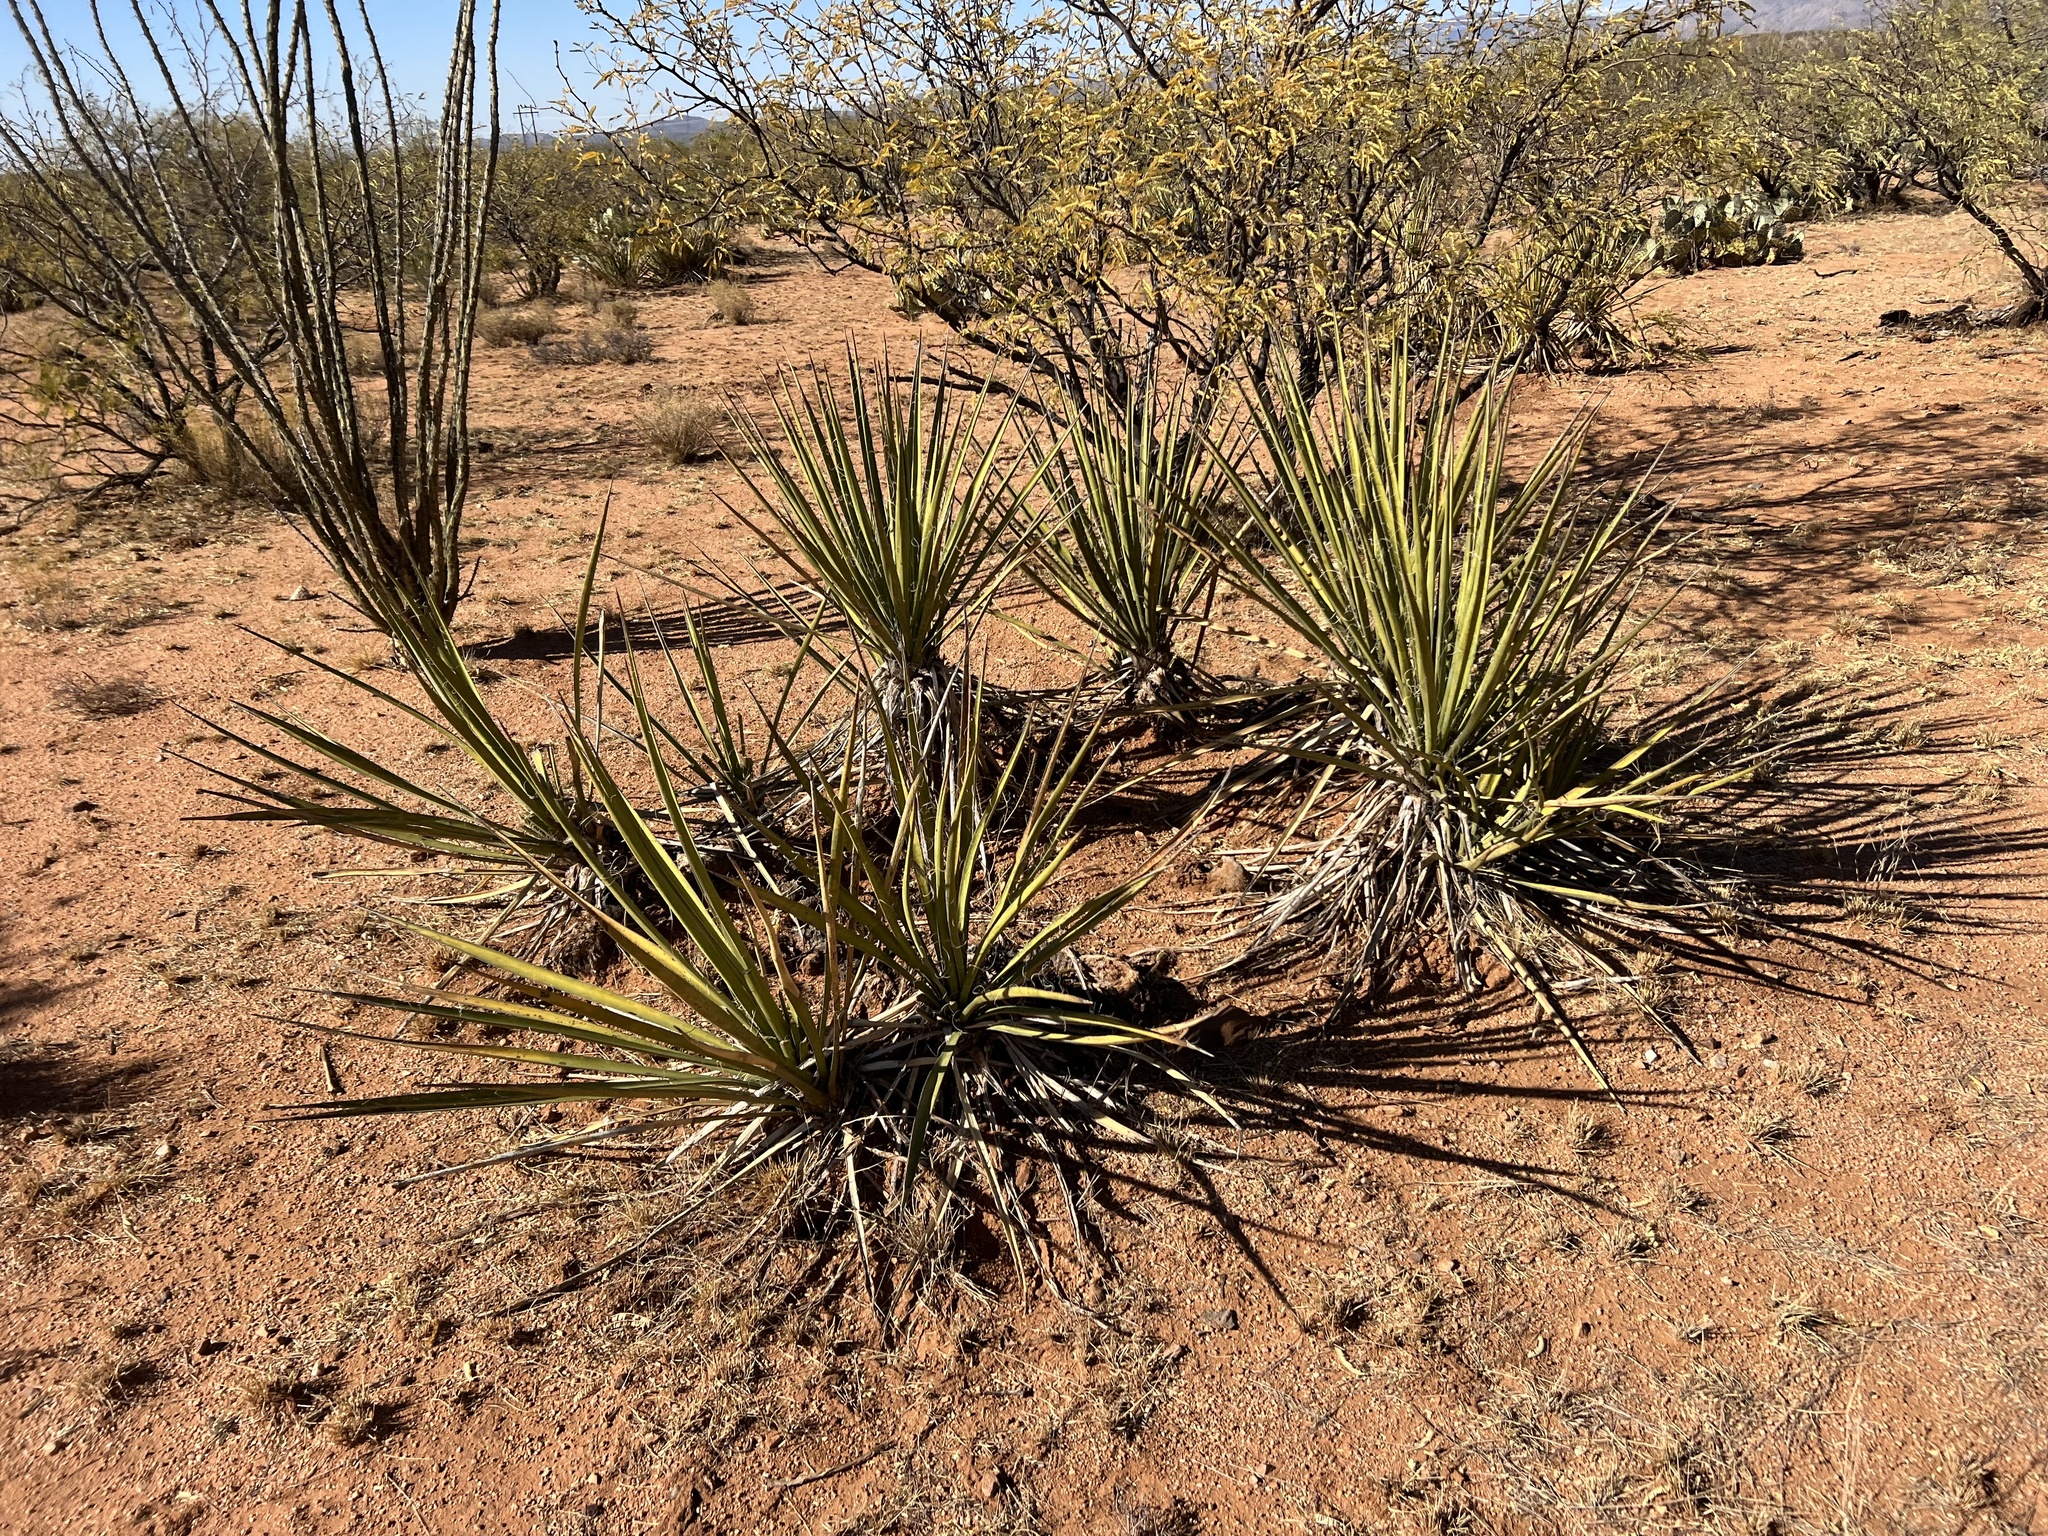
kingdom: Plantae
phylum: Tracheophyta
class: Liliopsida
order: Asparagales
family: Asparagaceae
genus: Yucca
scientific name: Yucca baccata
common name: Banana yucca
